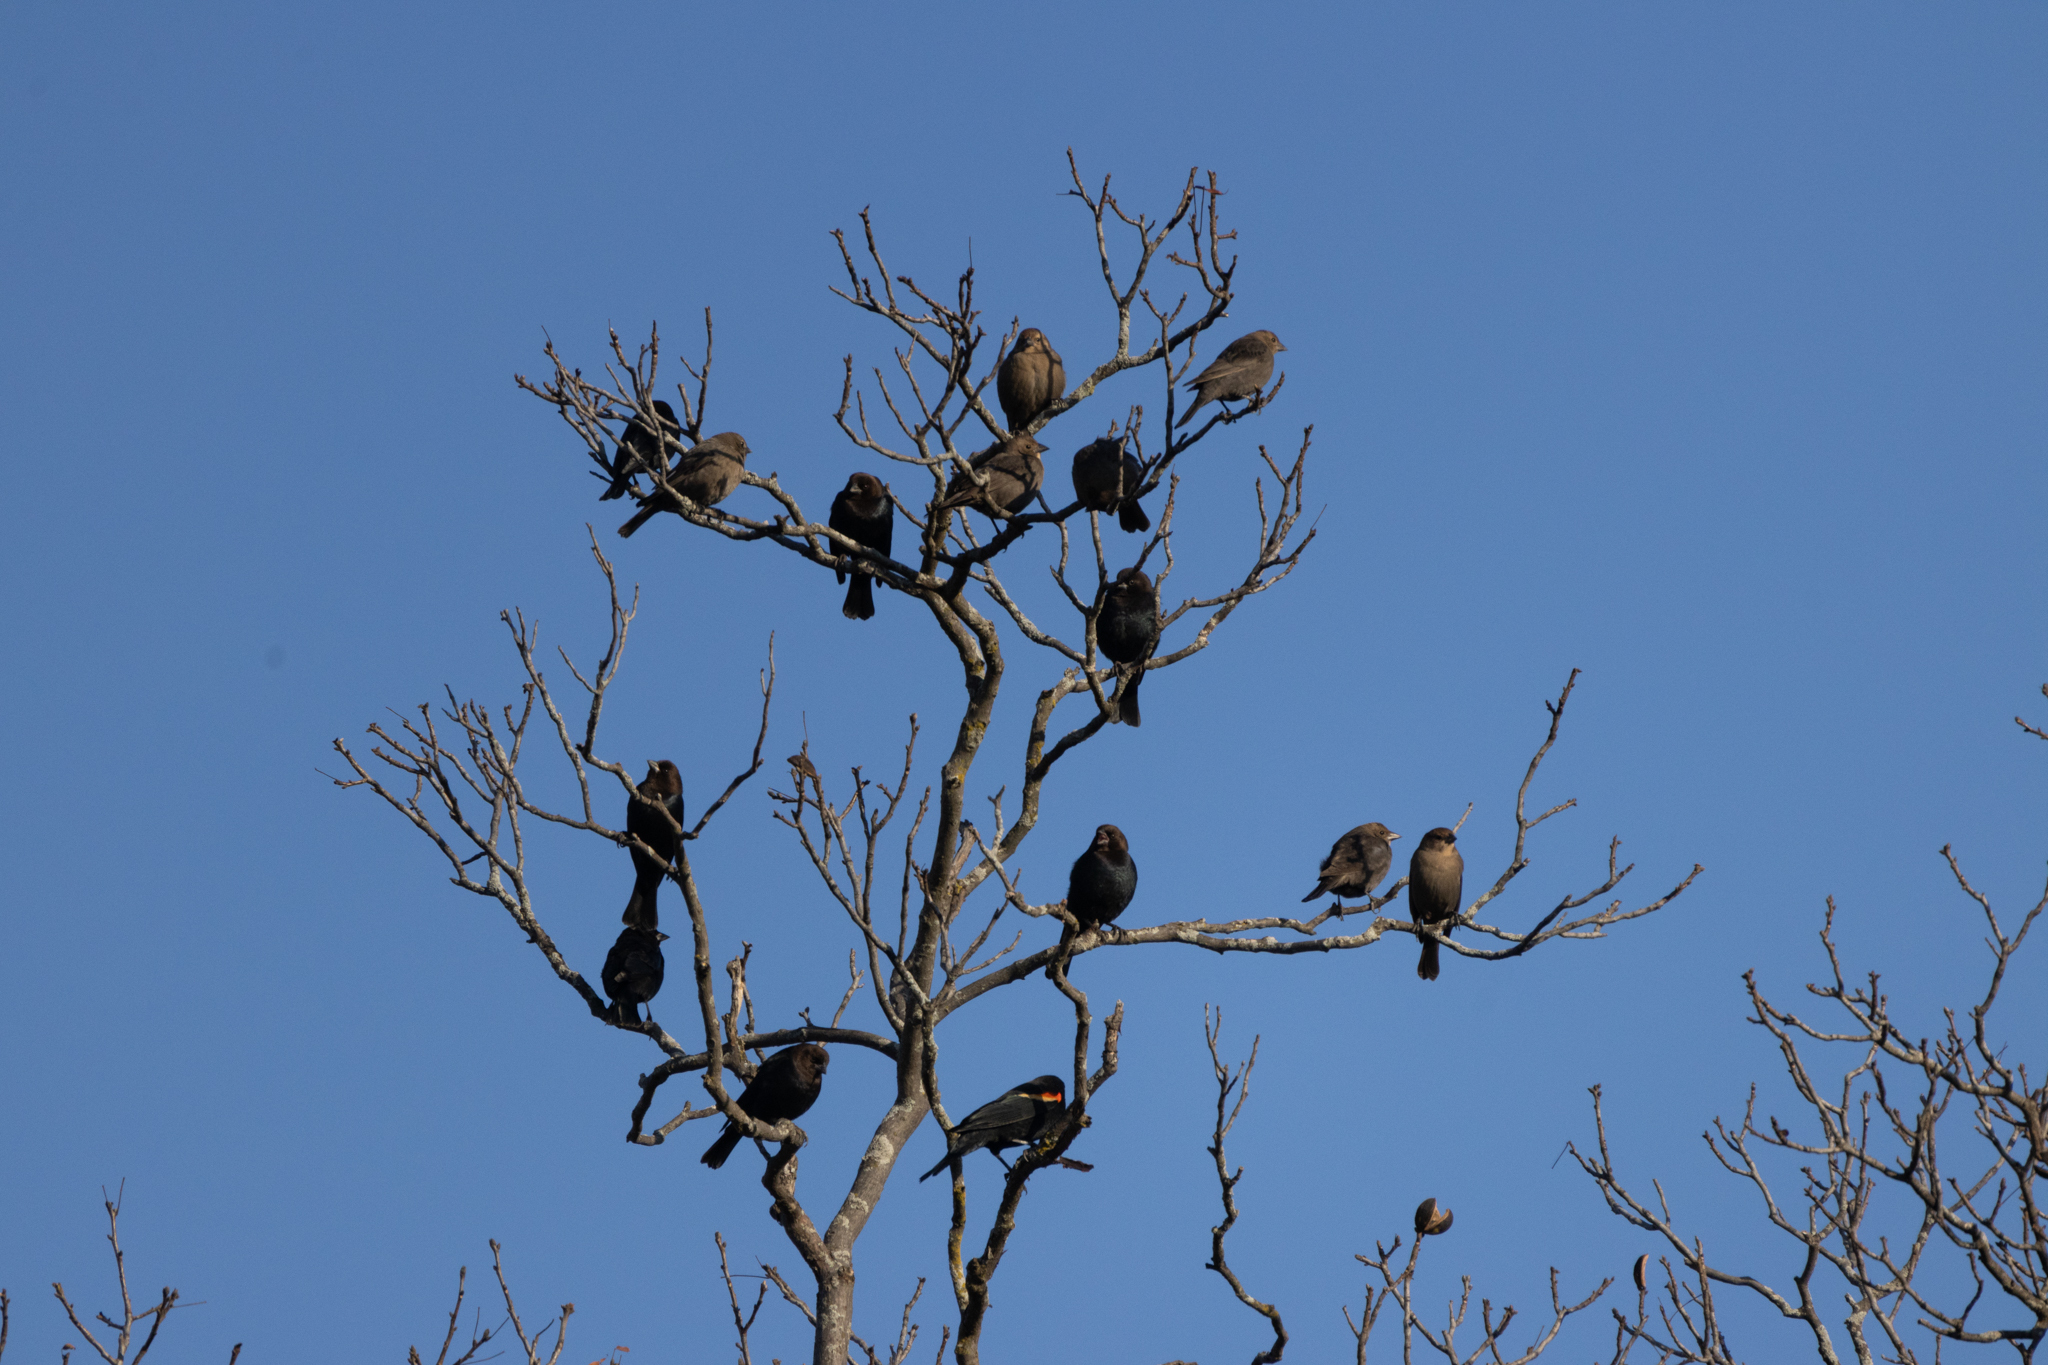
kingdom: Animalia
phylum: Chordata
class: Aves
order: Passeriformes
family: Icteridae
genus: Molothrus
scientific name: Molothrus ater
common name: Brown-headed cowbird
